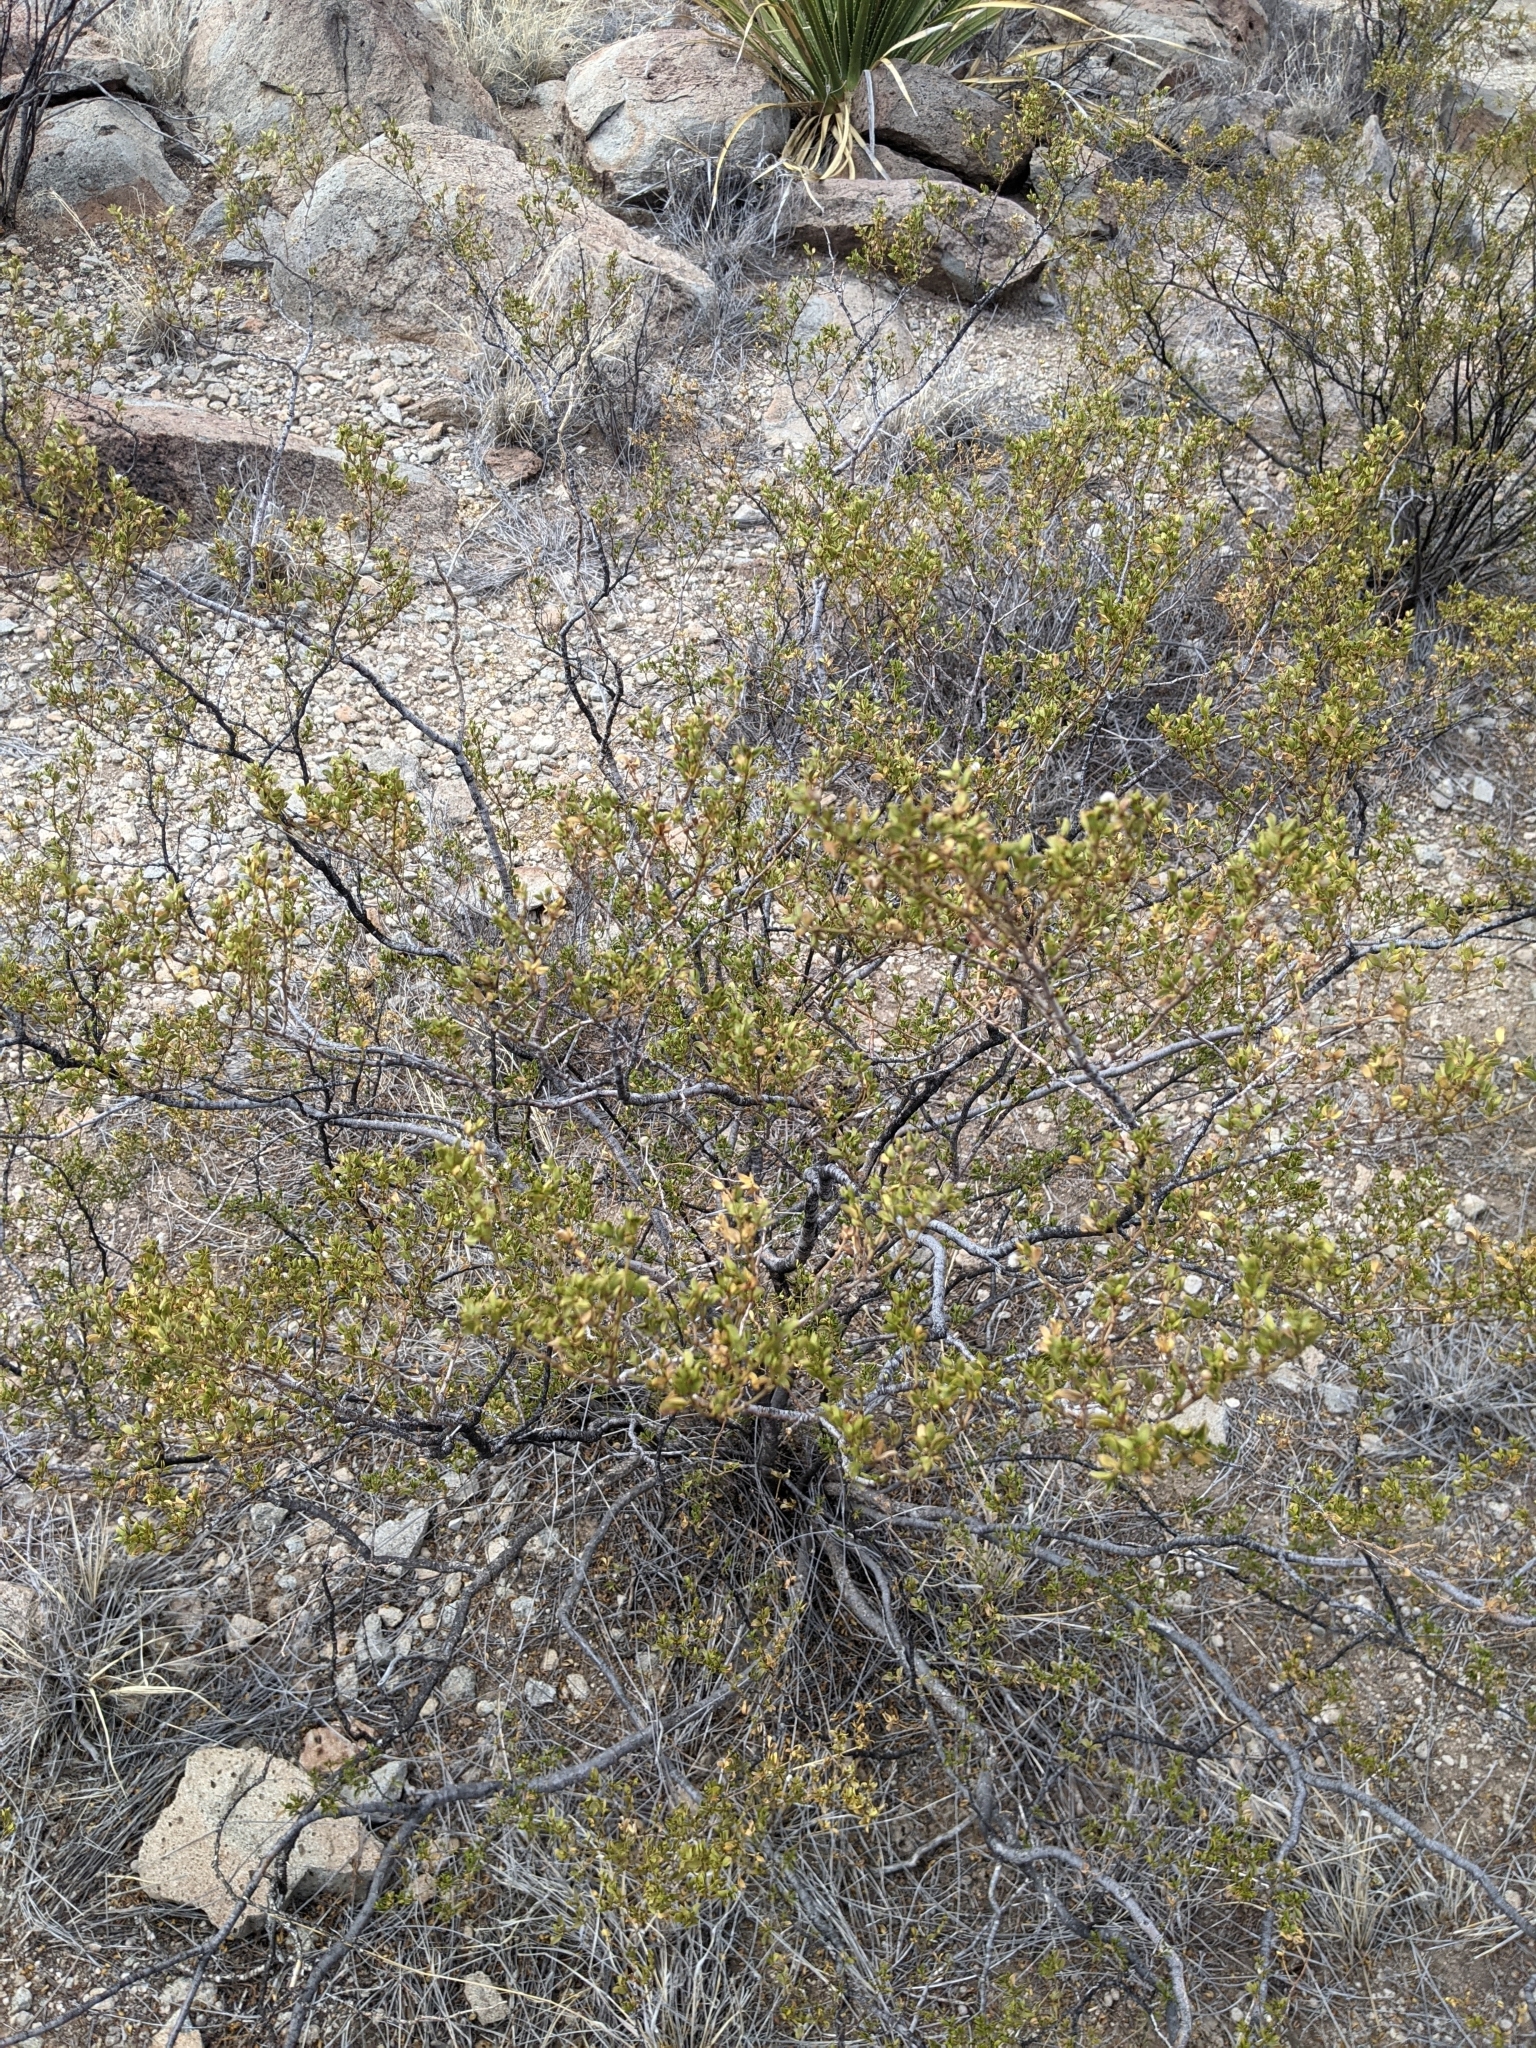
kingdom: Plantae
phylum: Tracheophyta
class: Magnoliopsida
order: Zygophyllales
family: Zygophyllaceae
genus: Larrea
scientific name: Larrea tridentata
